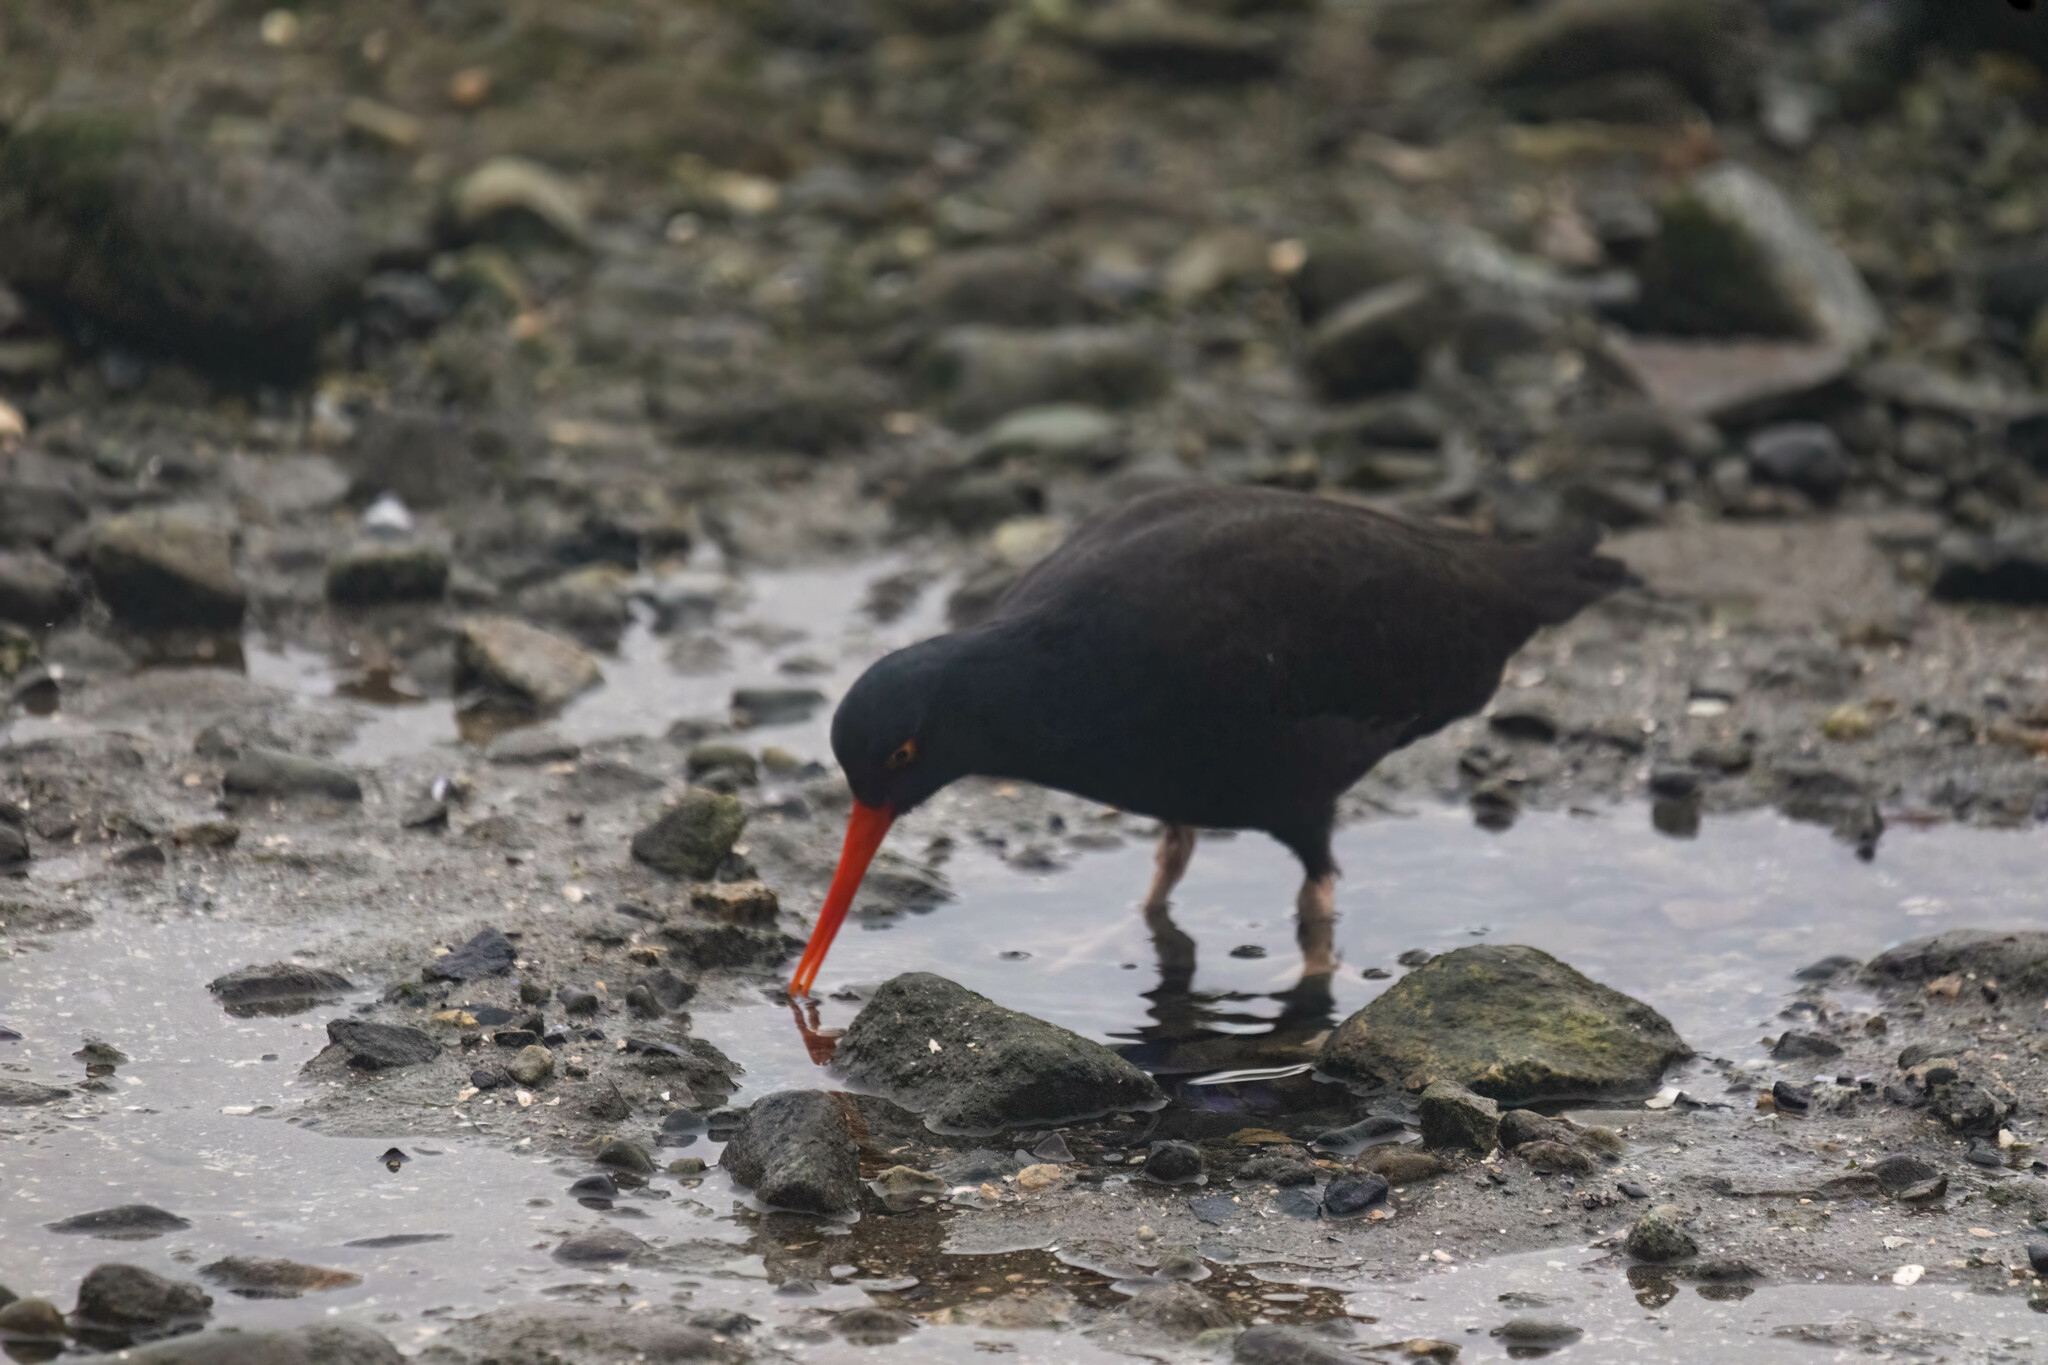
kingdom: Animalia
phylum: Chordata
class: Aves
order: Charadriiformes
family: Haematopodidae
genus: Haematopus
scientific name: Haematopus bachmani
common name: Black oystercatcher
